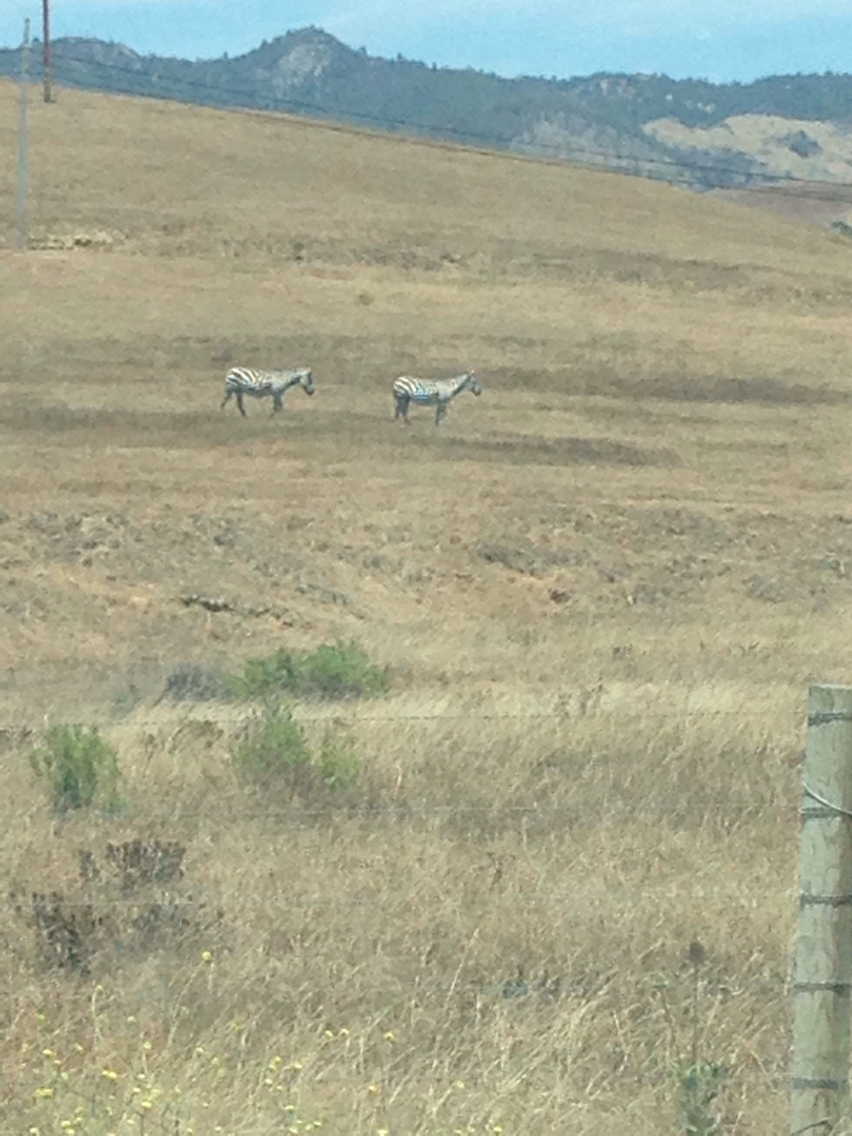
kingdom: Animalia
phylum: Chordata
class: Mammalia
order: Perissodactyla
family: Equidae
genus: Equus
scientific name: Equus quagga
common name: Plains zebra
